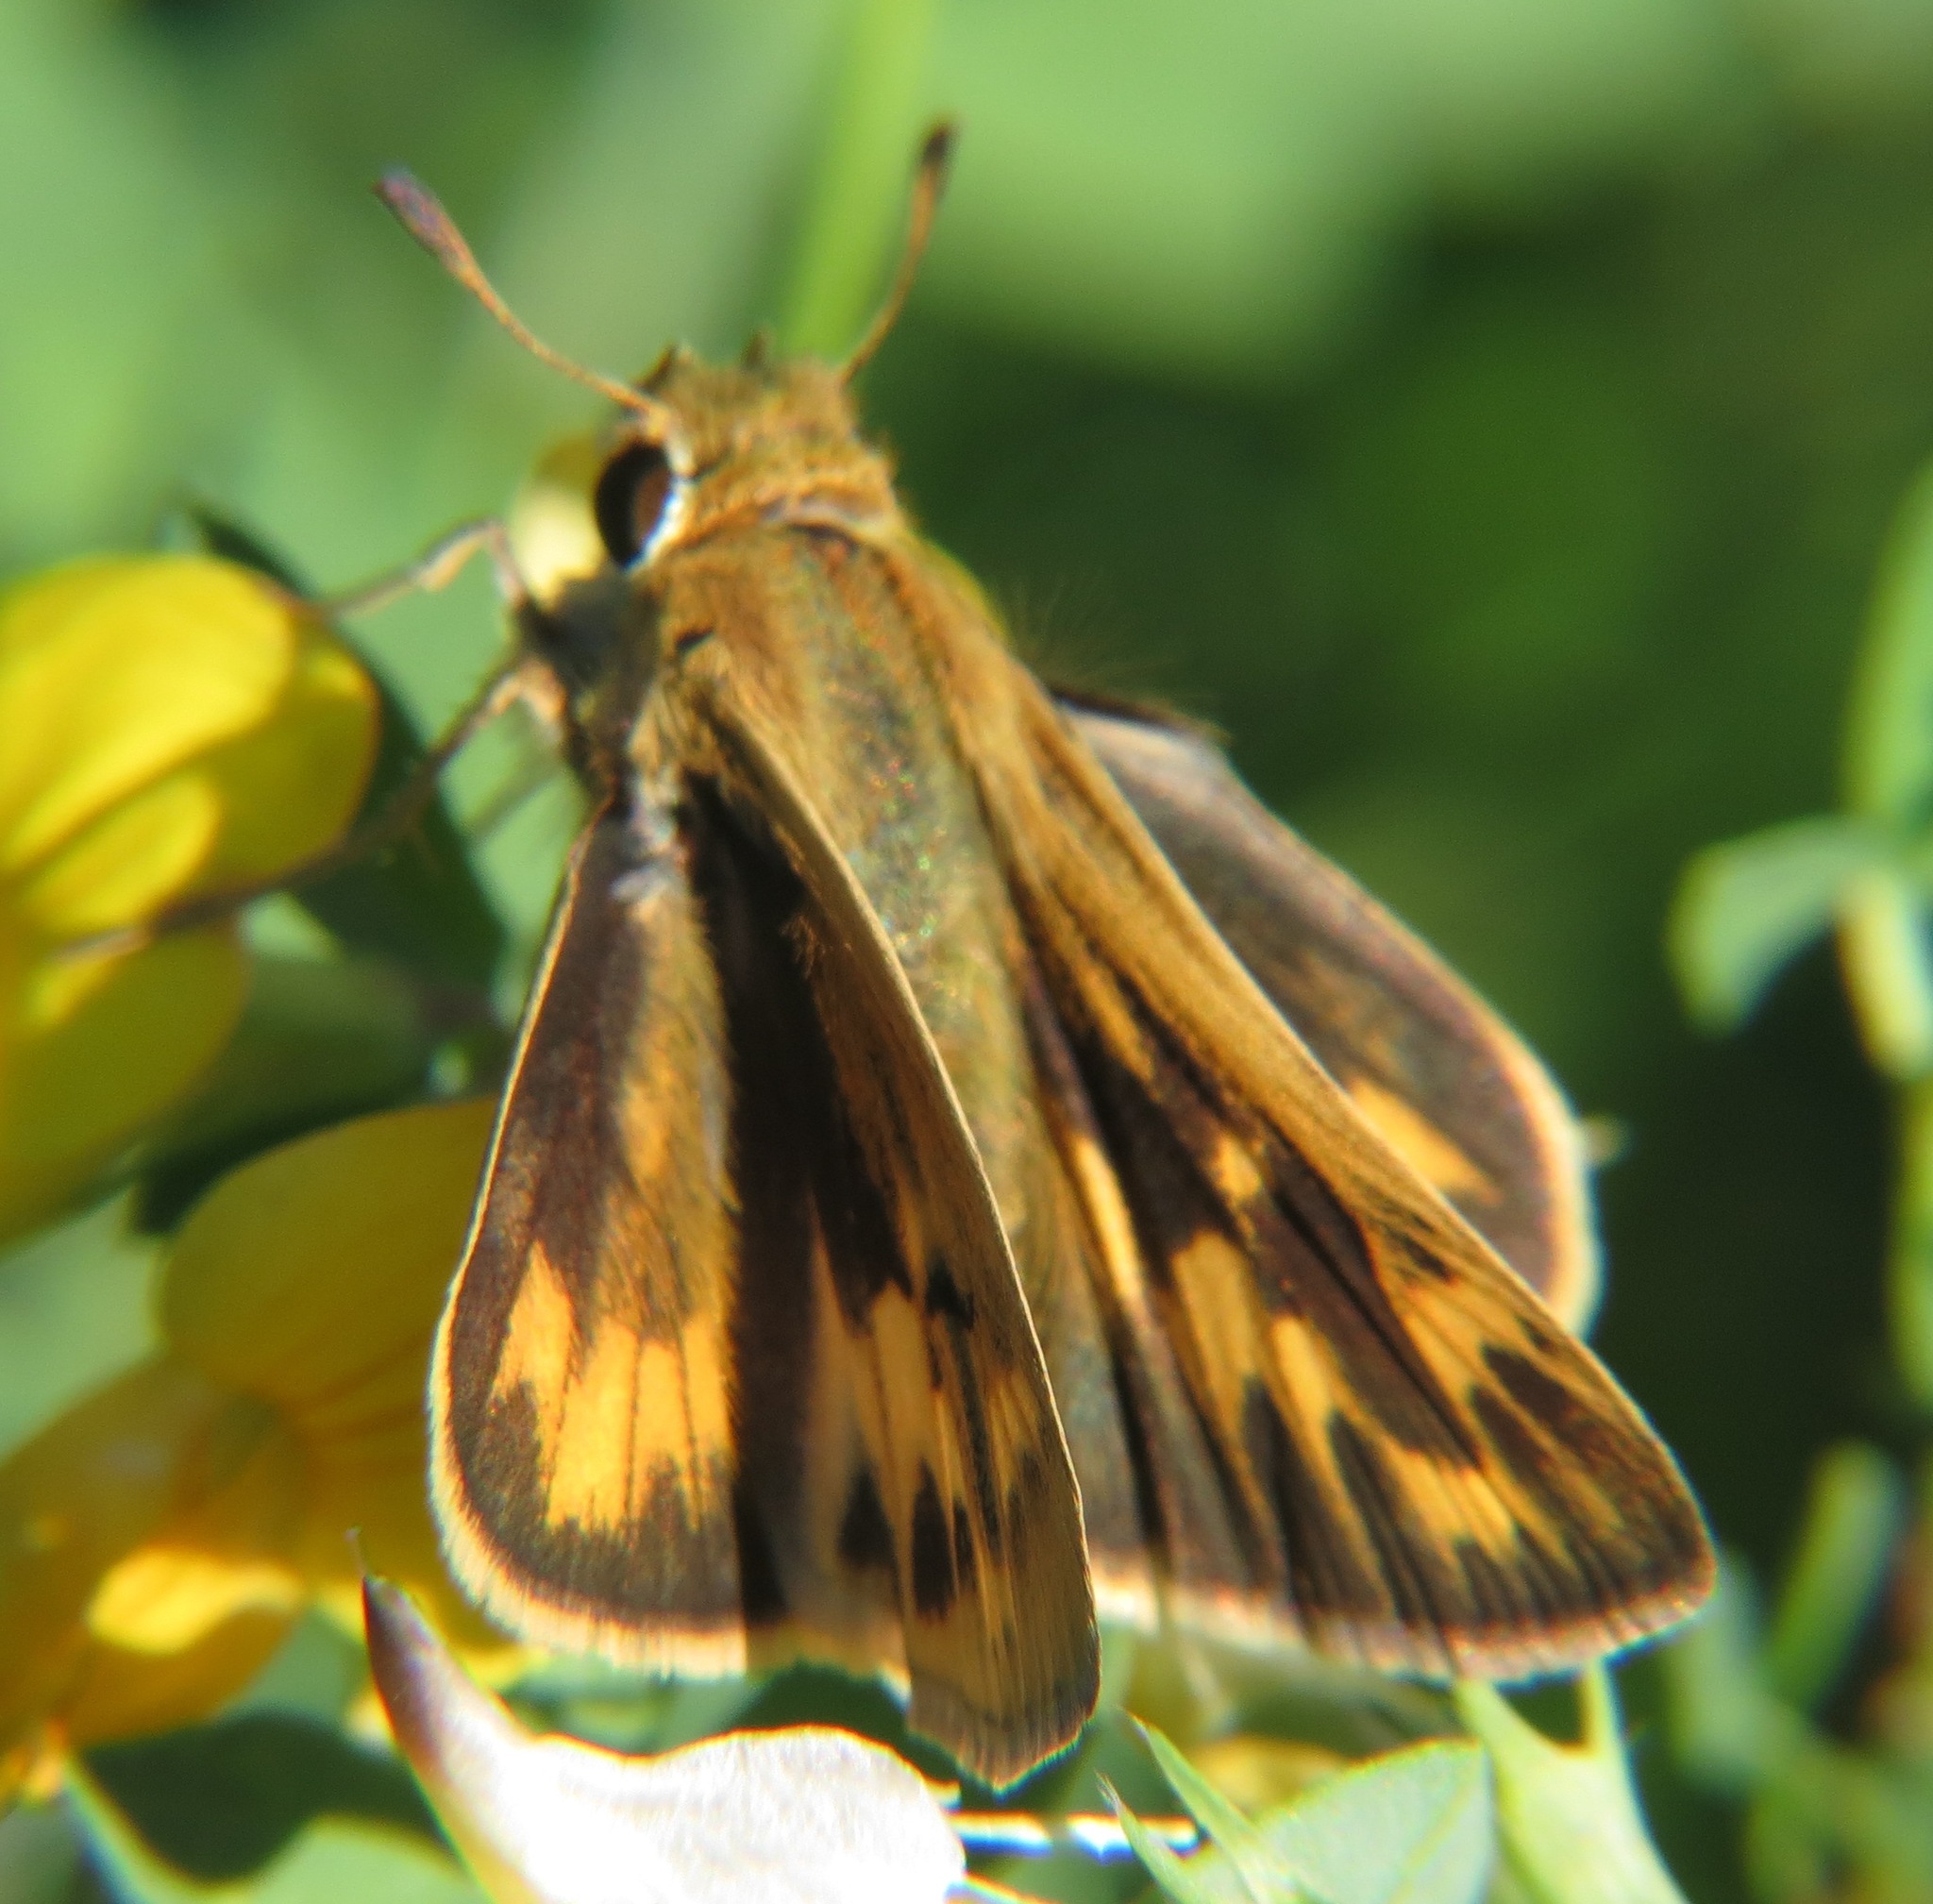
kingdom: Animalia
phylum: Arthropoda
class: Insecta
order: Lepidoptera
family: Hesperiidae
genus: Hylephila
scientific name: Hylephila phyleus
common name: Fiery skipper
